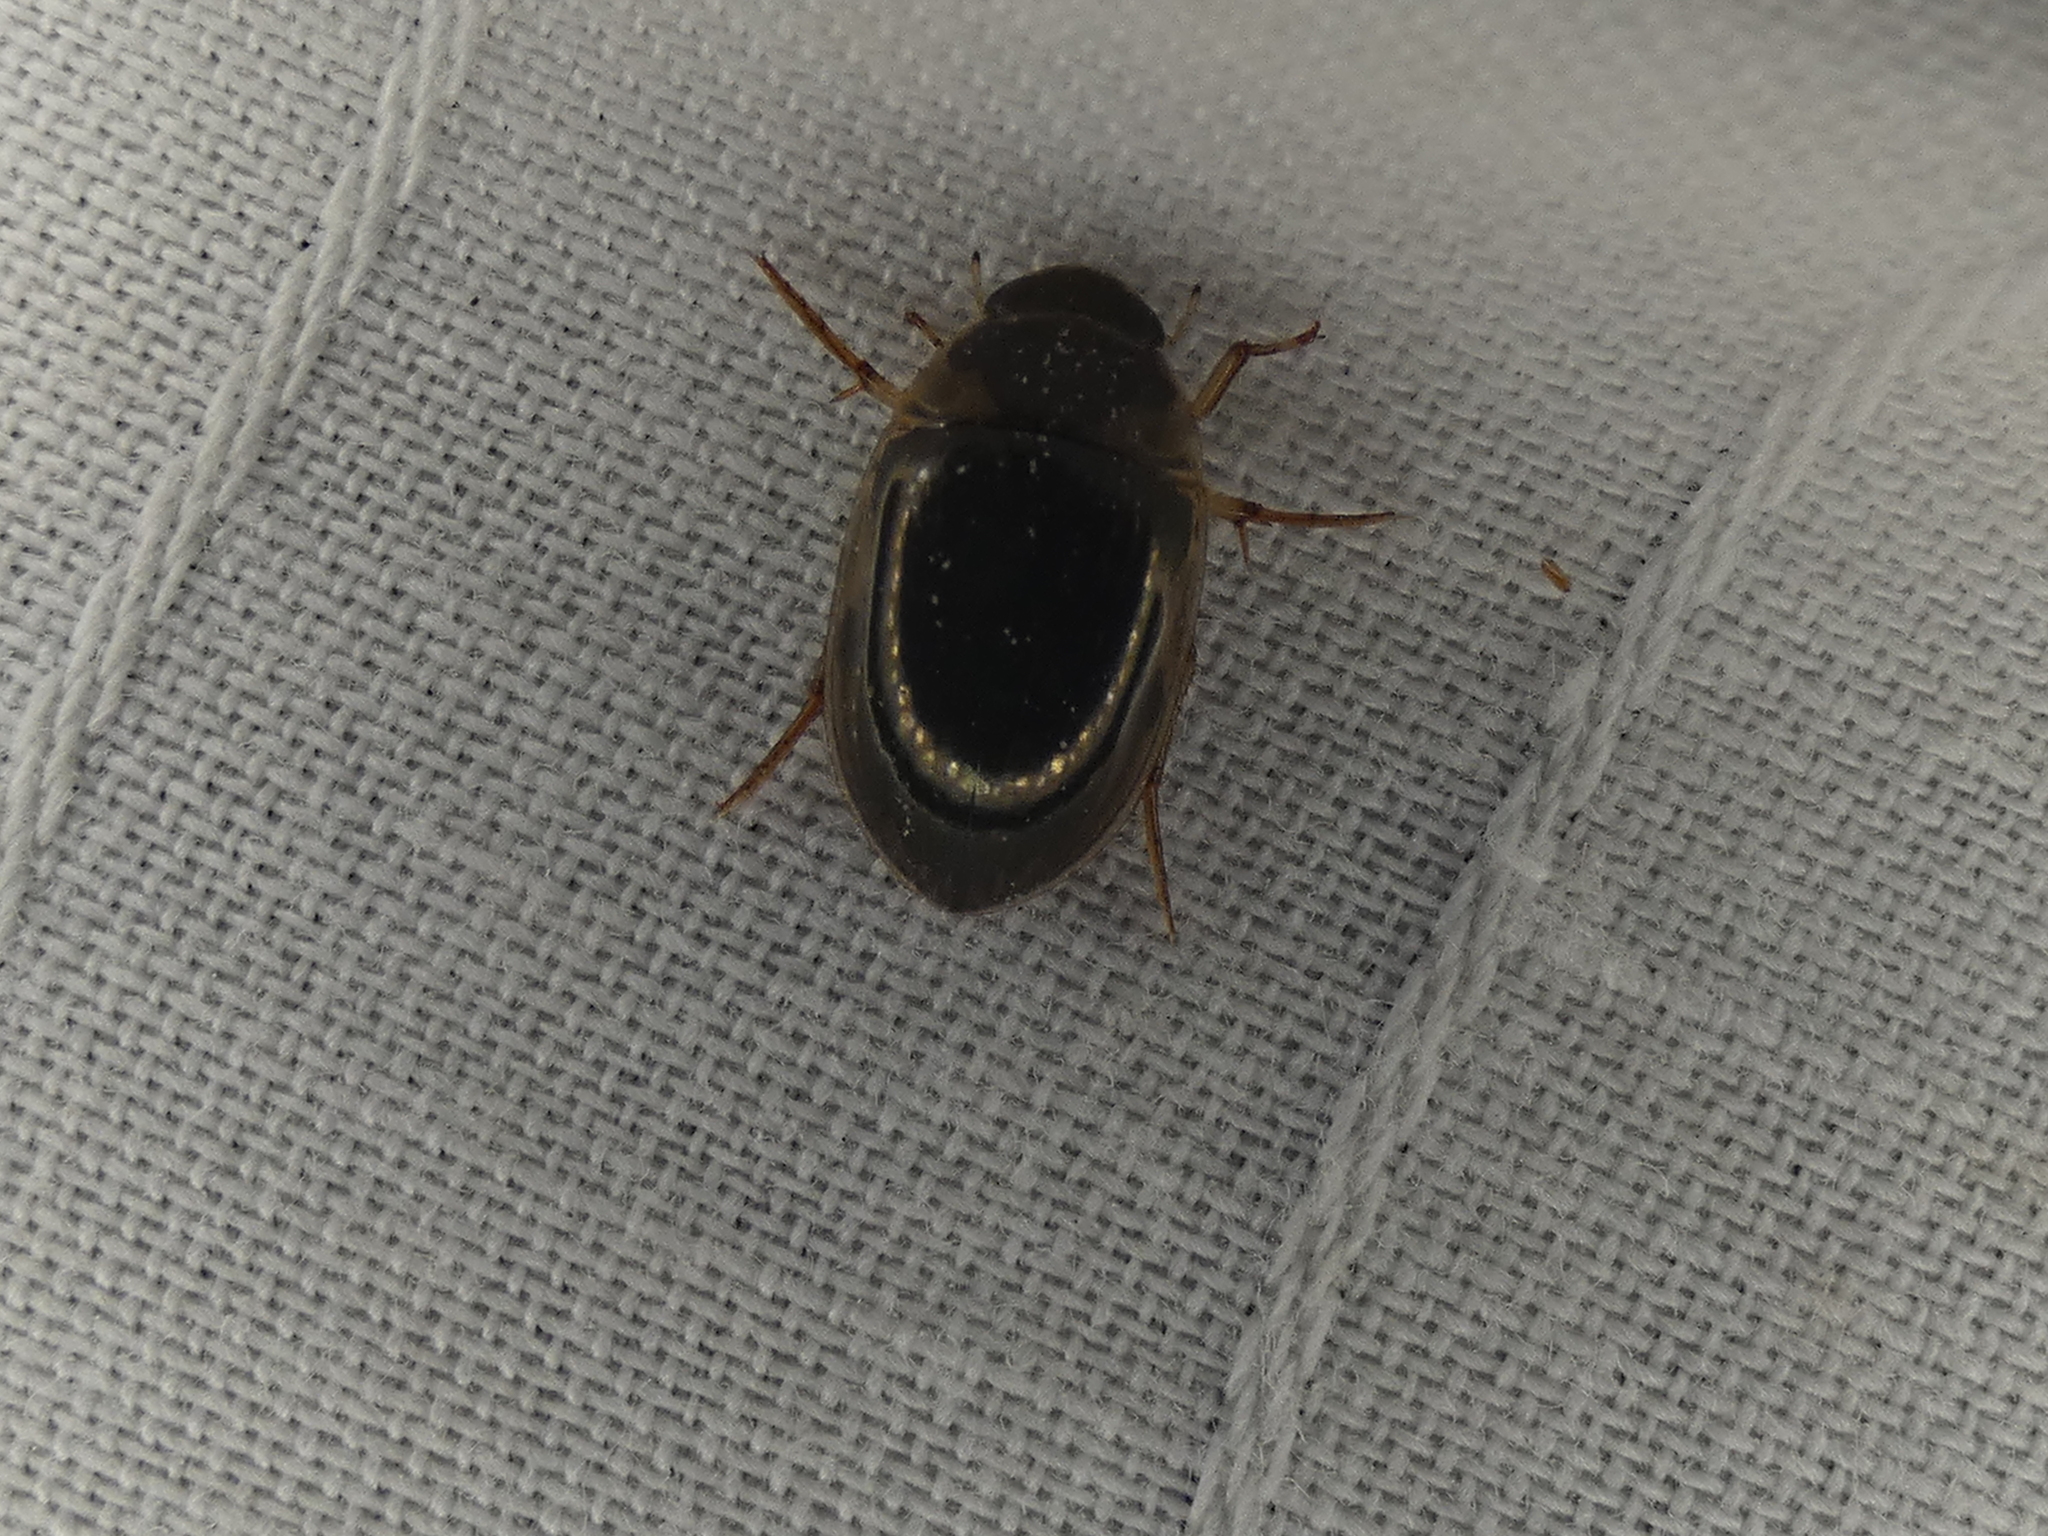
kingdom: Animalia
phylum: Arthropoda
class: Insecta
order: Coleoptera
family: Hydrophilidae
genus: Tropisternus
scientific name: Tropisternus collaris
